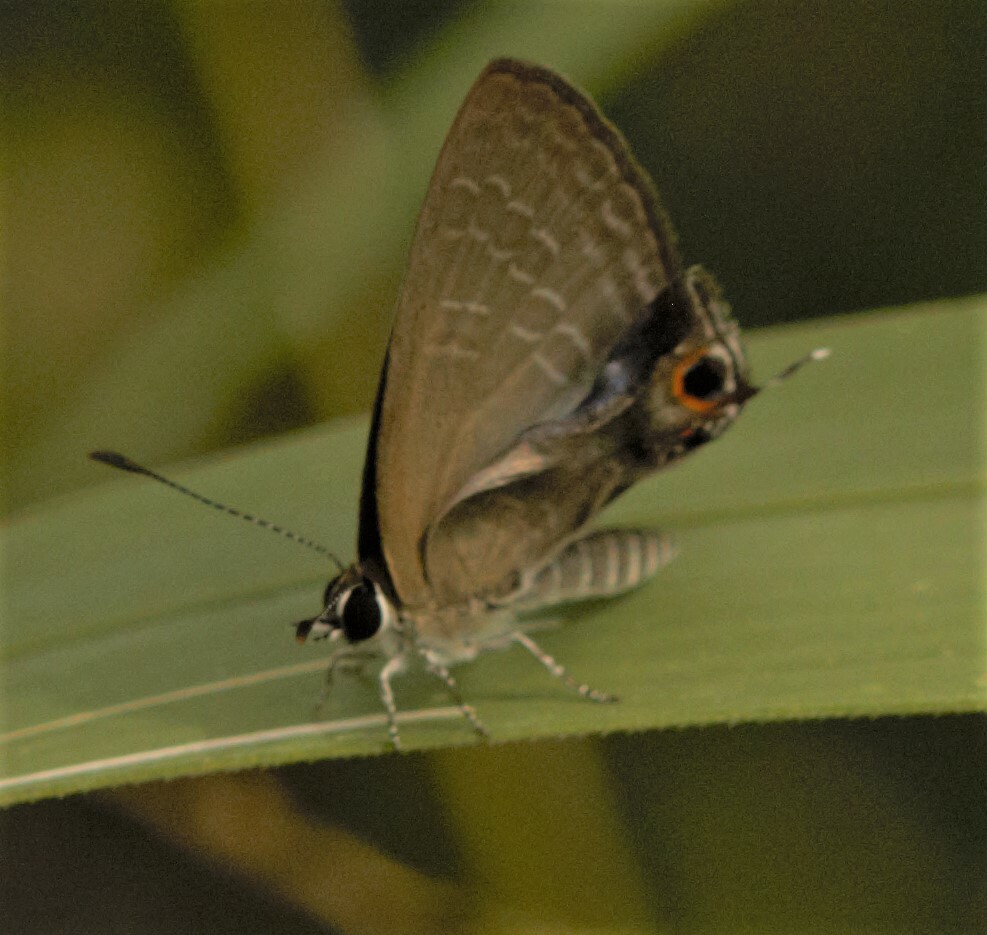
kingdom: Animalia
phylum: Arthropoda
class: Insecta
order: Lepidoptera
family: Lycaenidae
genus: Jamides
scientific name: Jamides phaseli
